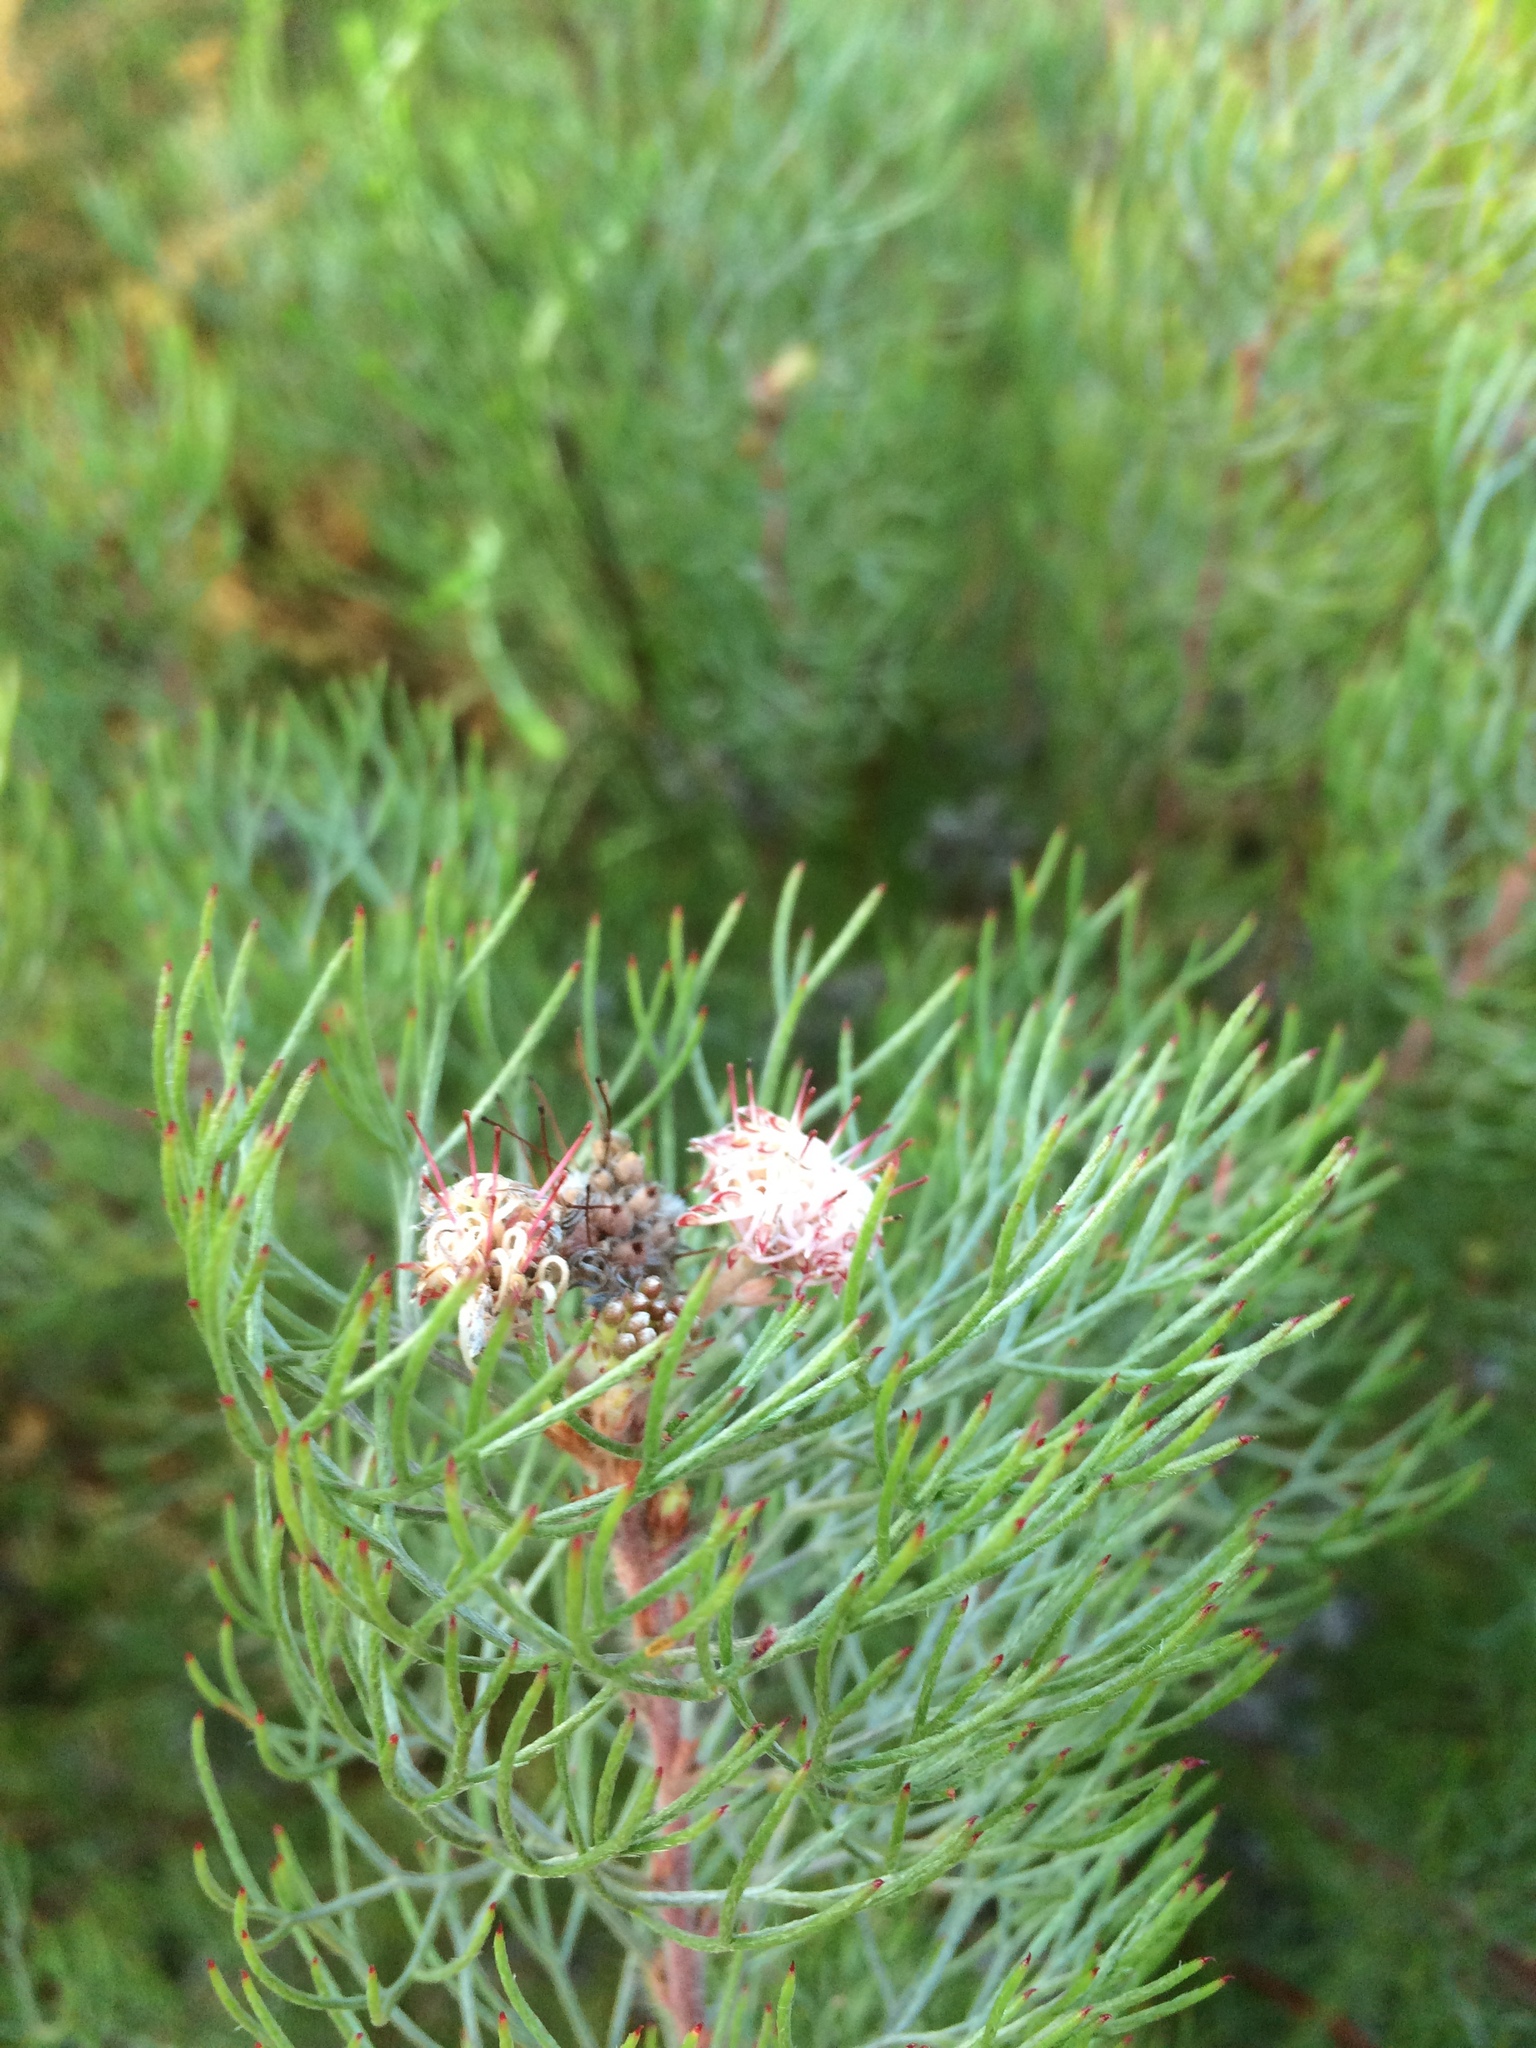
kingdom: Plantae
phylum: Tracheophyta
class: Magnoliopsida
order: Proteales
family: Proteaceae
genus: Serruria
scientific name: Serruria fasciflora
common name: Common pin spiderhead
